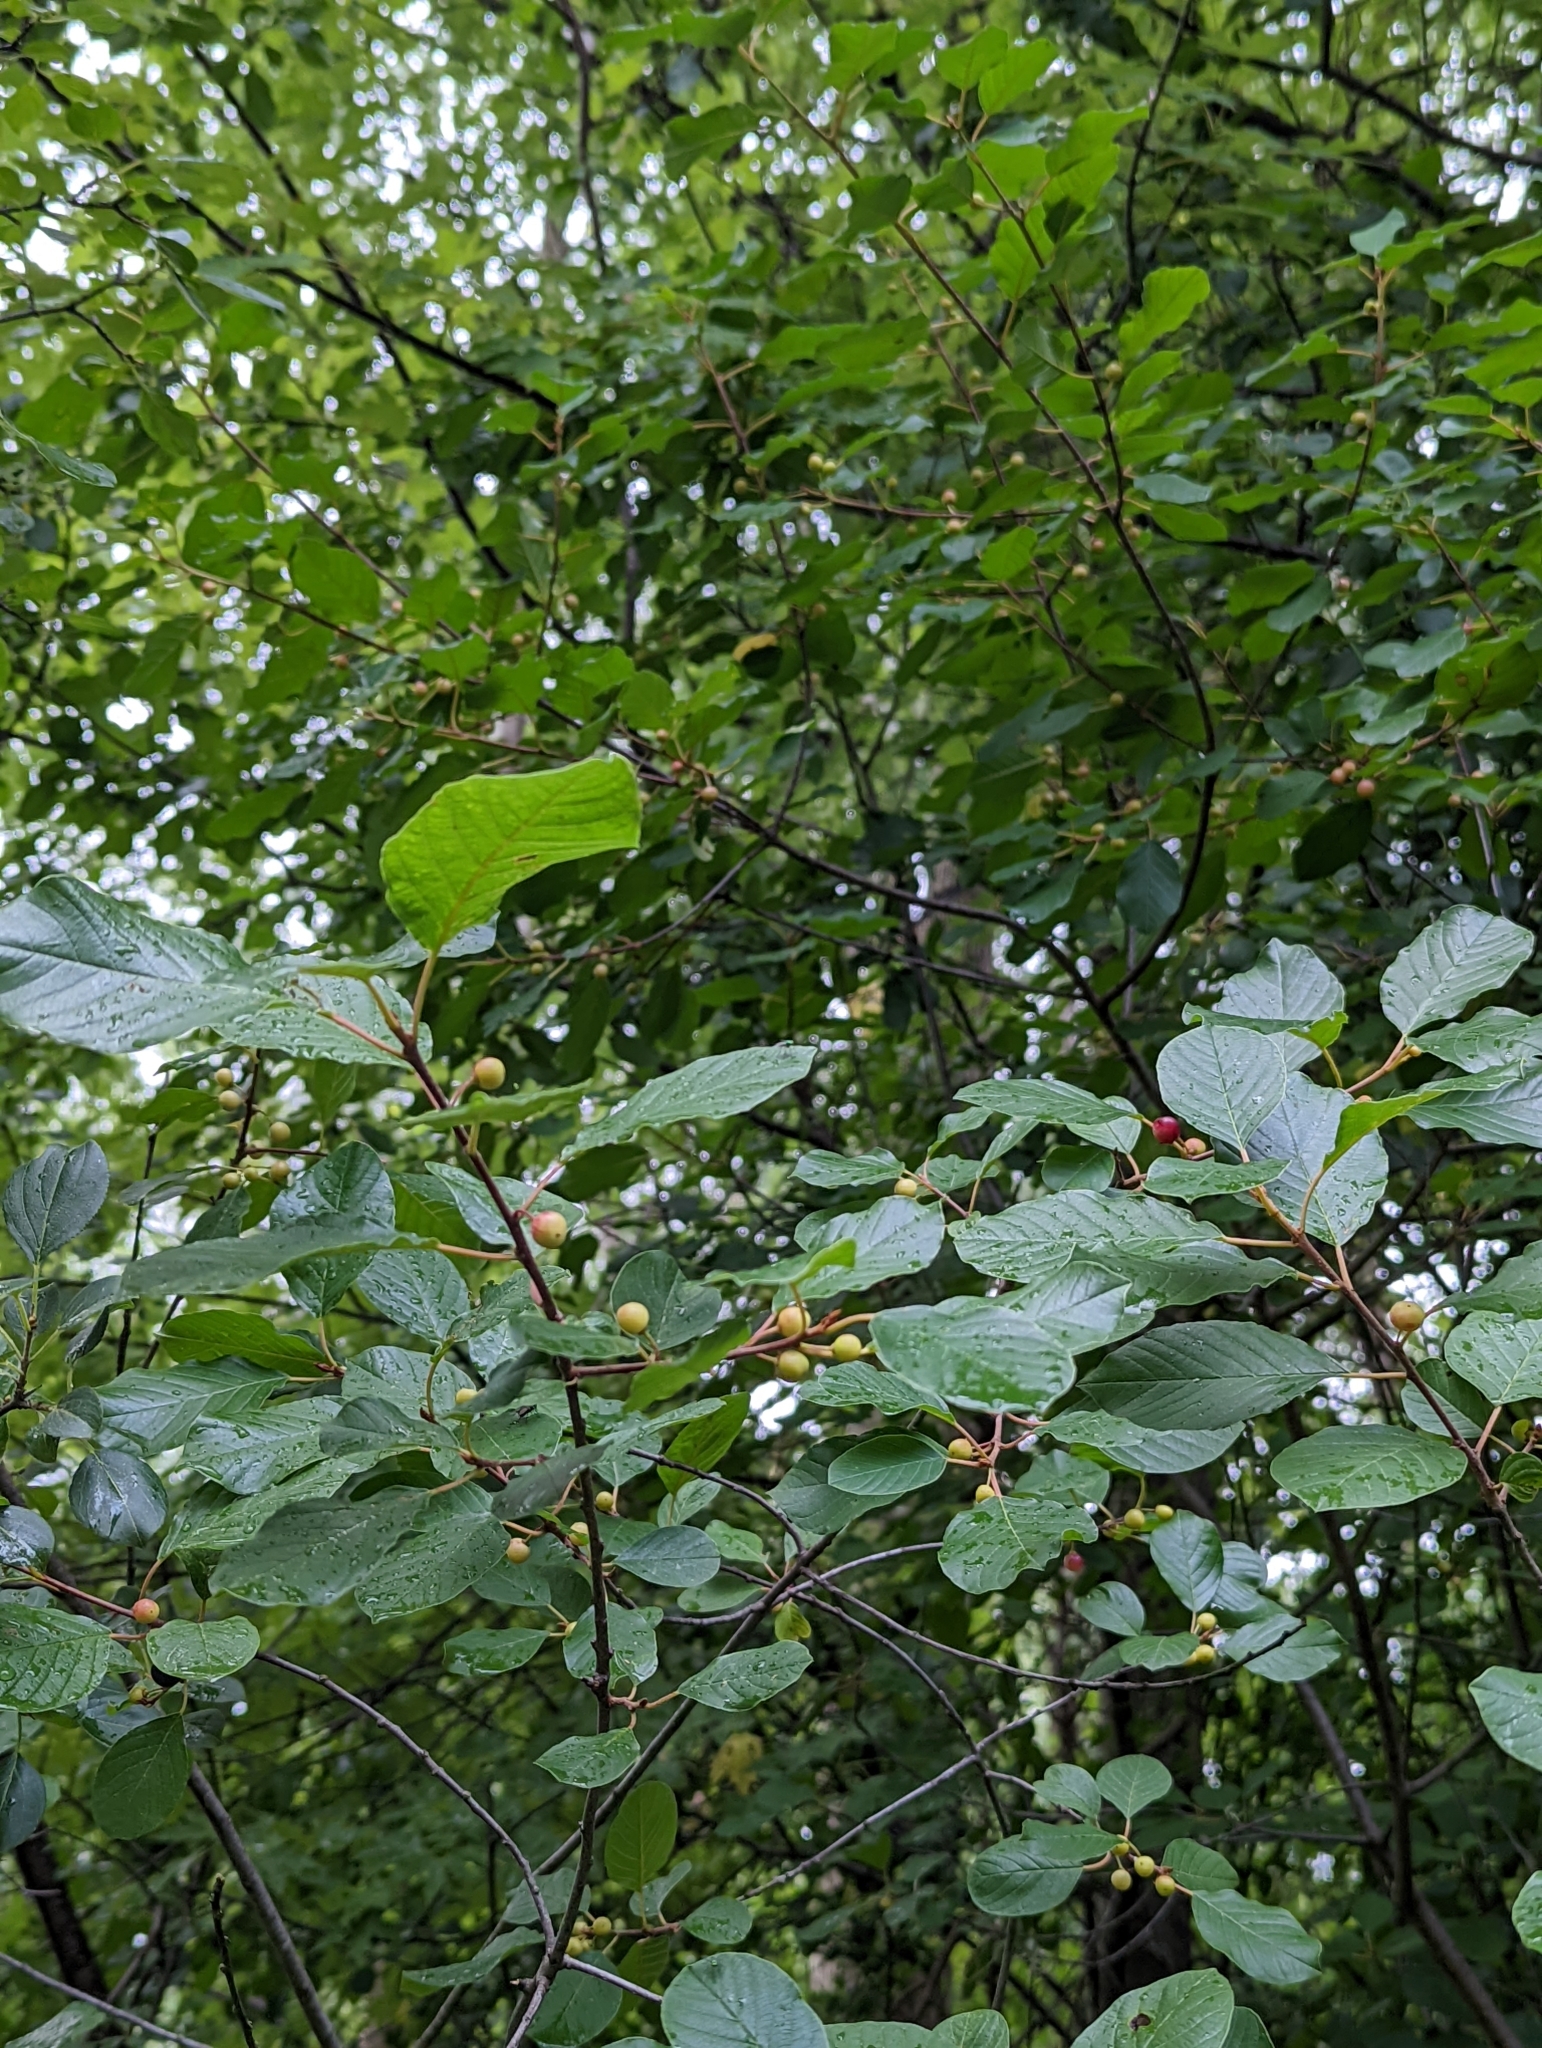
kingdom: Plantae
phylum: Tracheophyta
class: Magnoliopsida
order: Rosales
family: Rhamnaceae
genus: Frangula
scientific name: Frangula alnus
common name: Alder buckthorn
